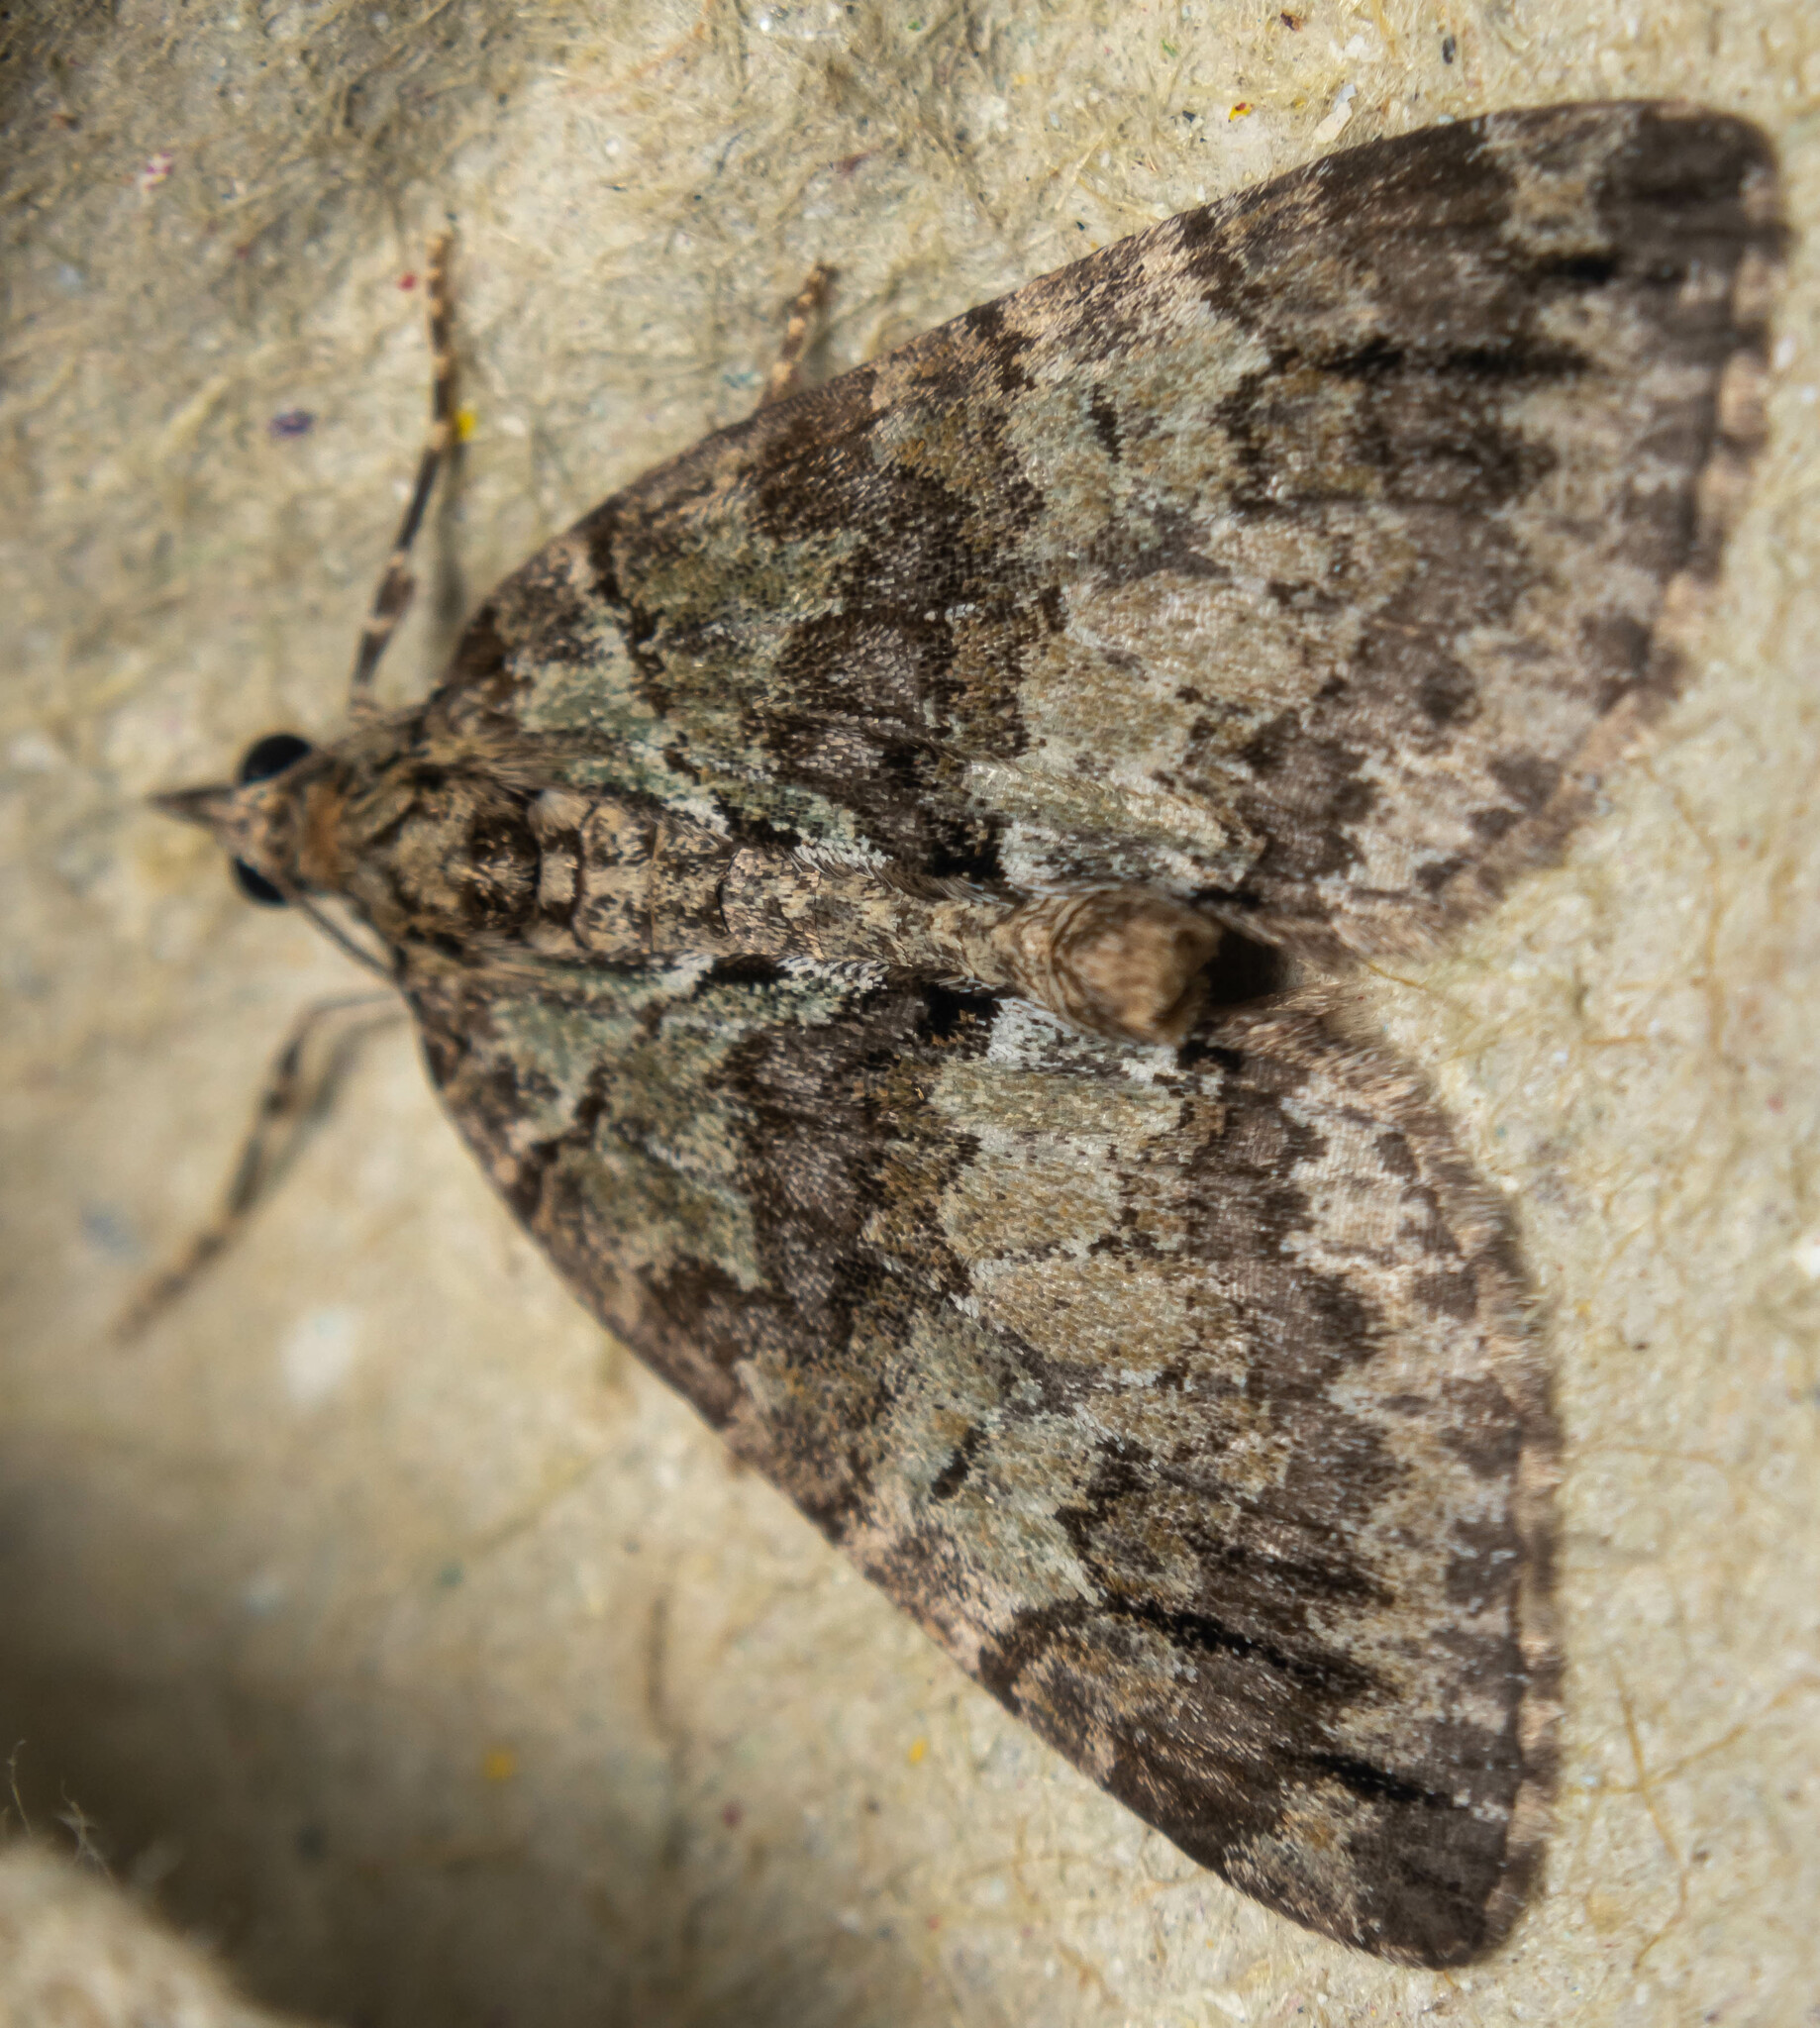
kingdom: Animalia
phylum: Arthropoda
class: Insecta
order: Lepidoptera
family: Geometridae
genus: Hydriomena
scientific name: Hydriomena impluviata
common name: May highflyer
